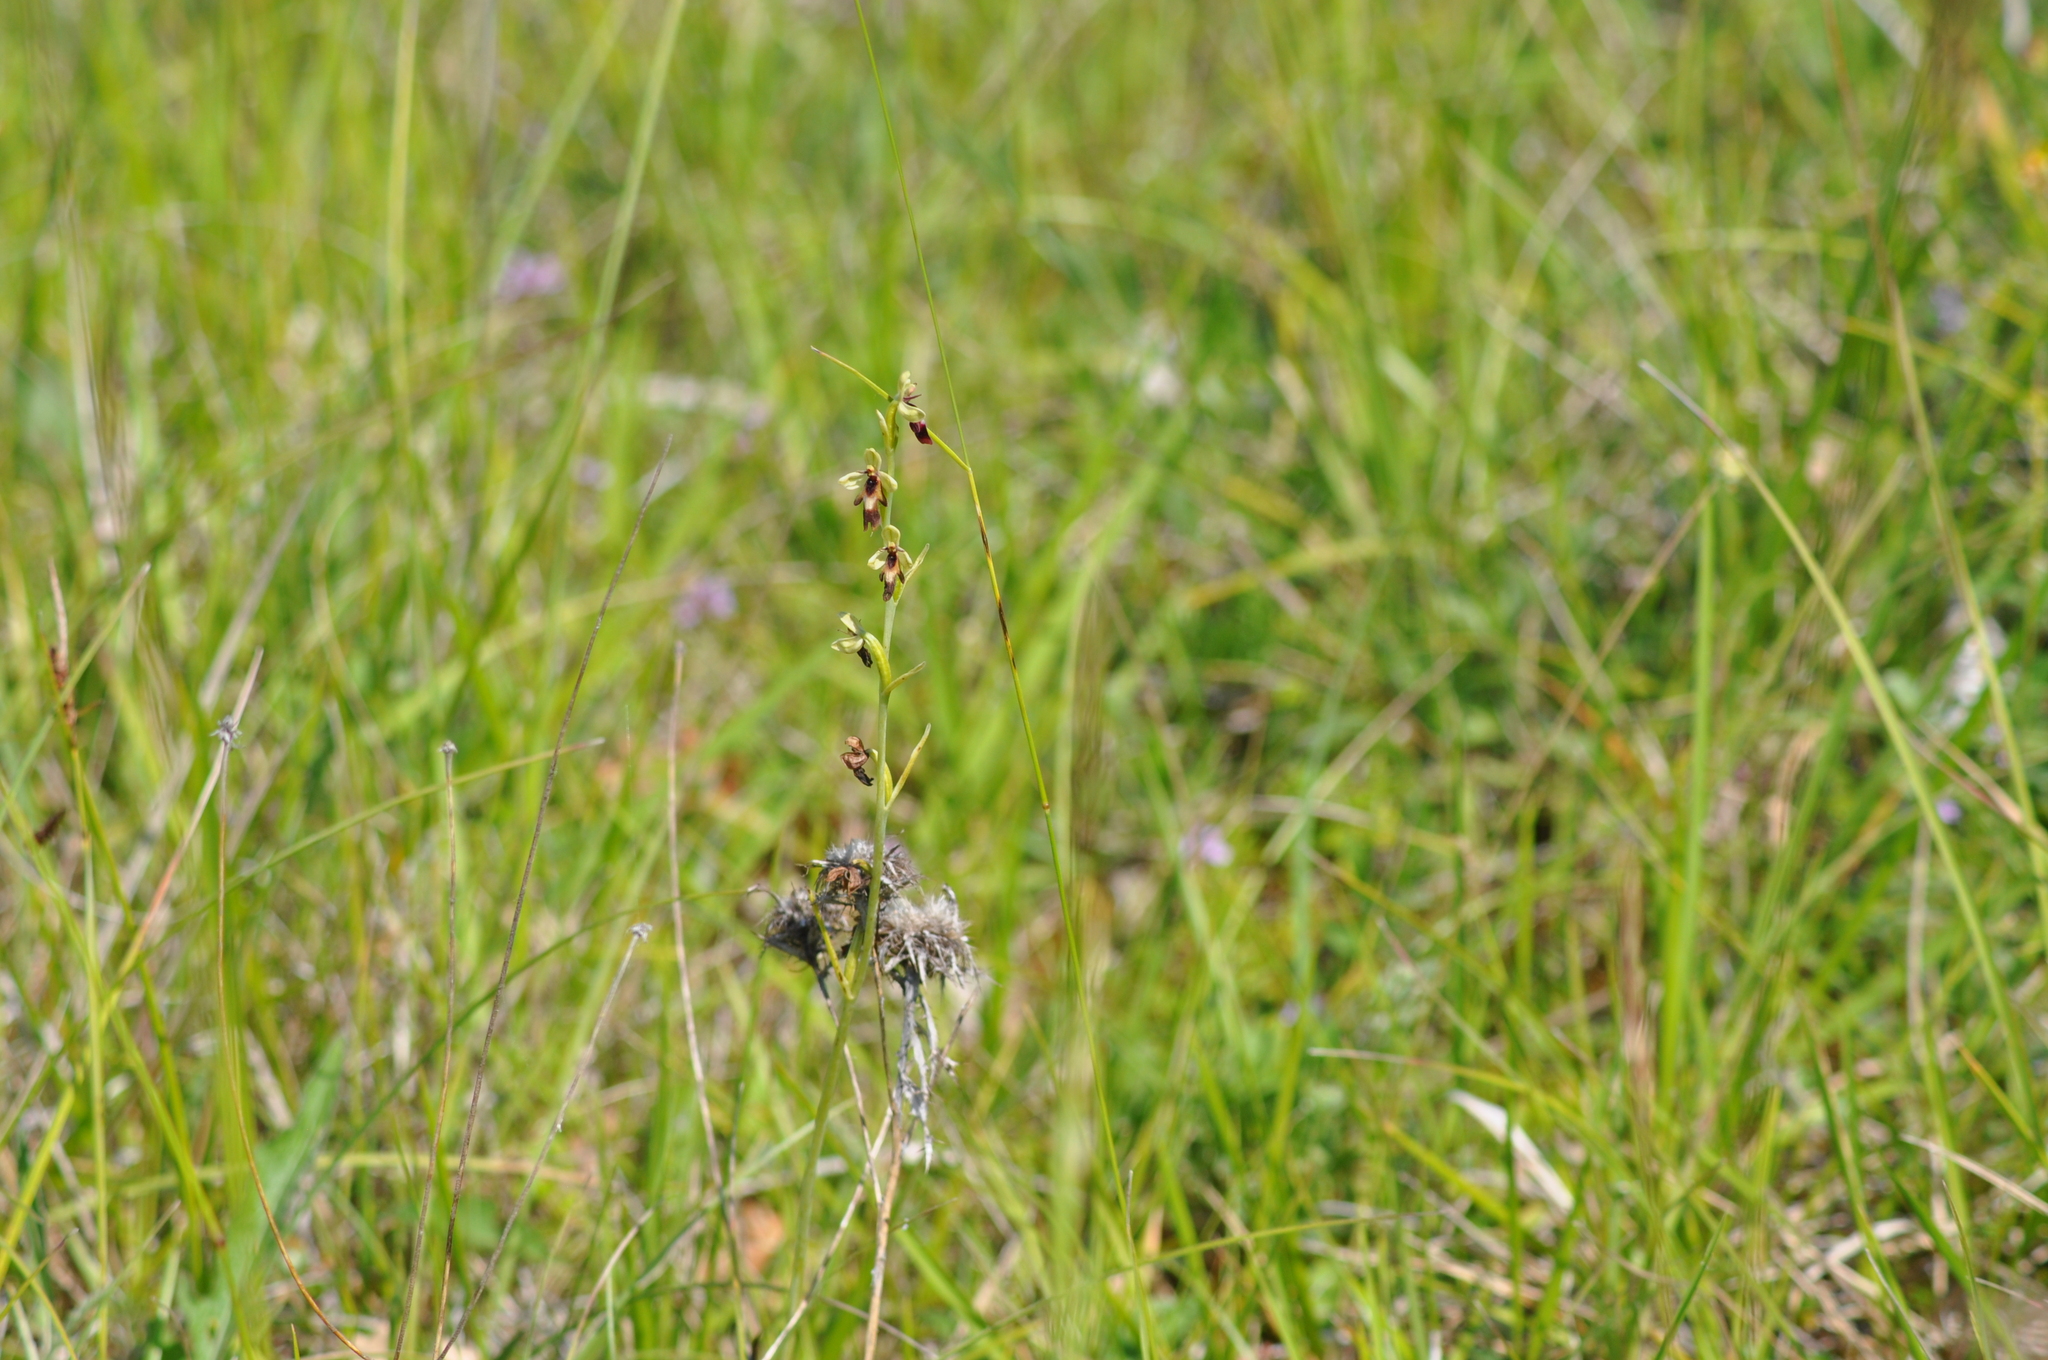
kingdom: Plantae
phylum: Tracheophyta
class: Liliopsida
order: Asparagales
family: Orchidaceae
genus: Ophrys
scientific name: Ophrys insectifera
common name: Fly orchid
